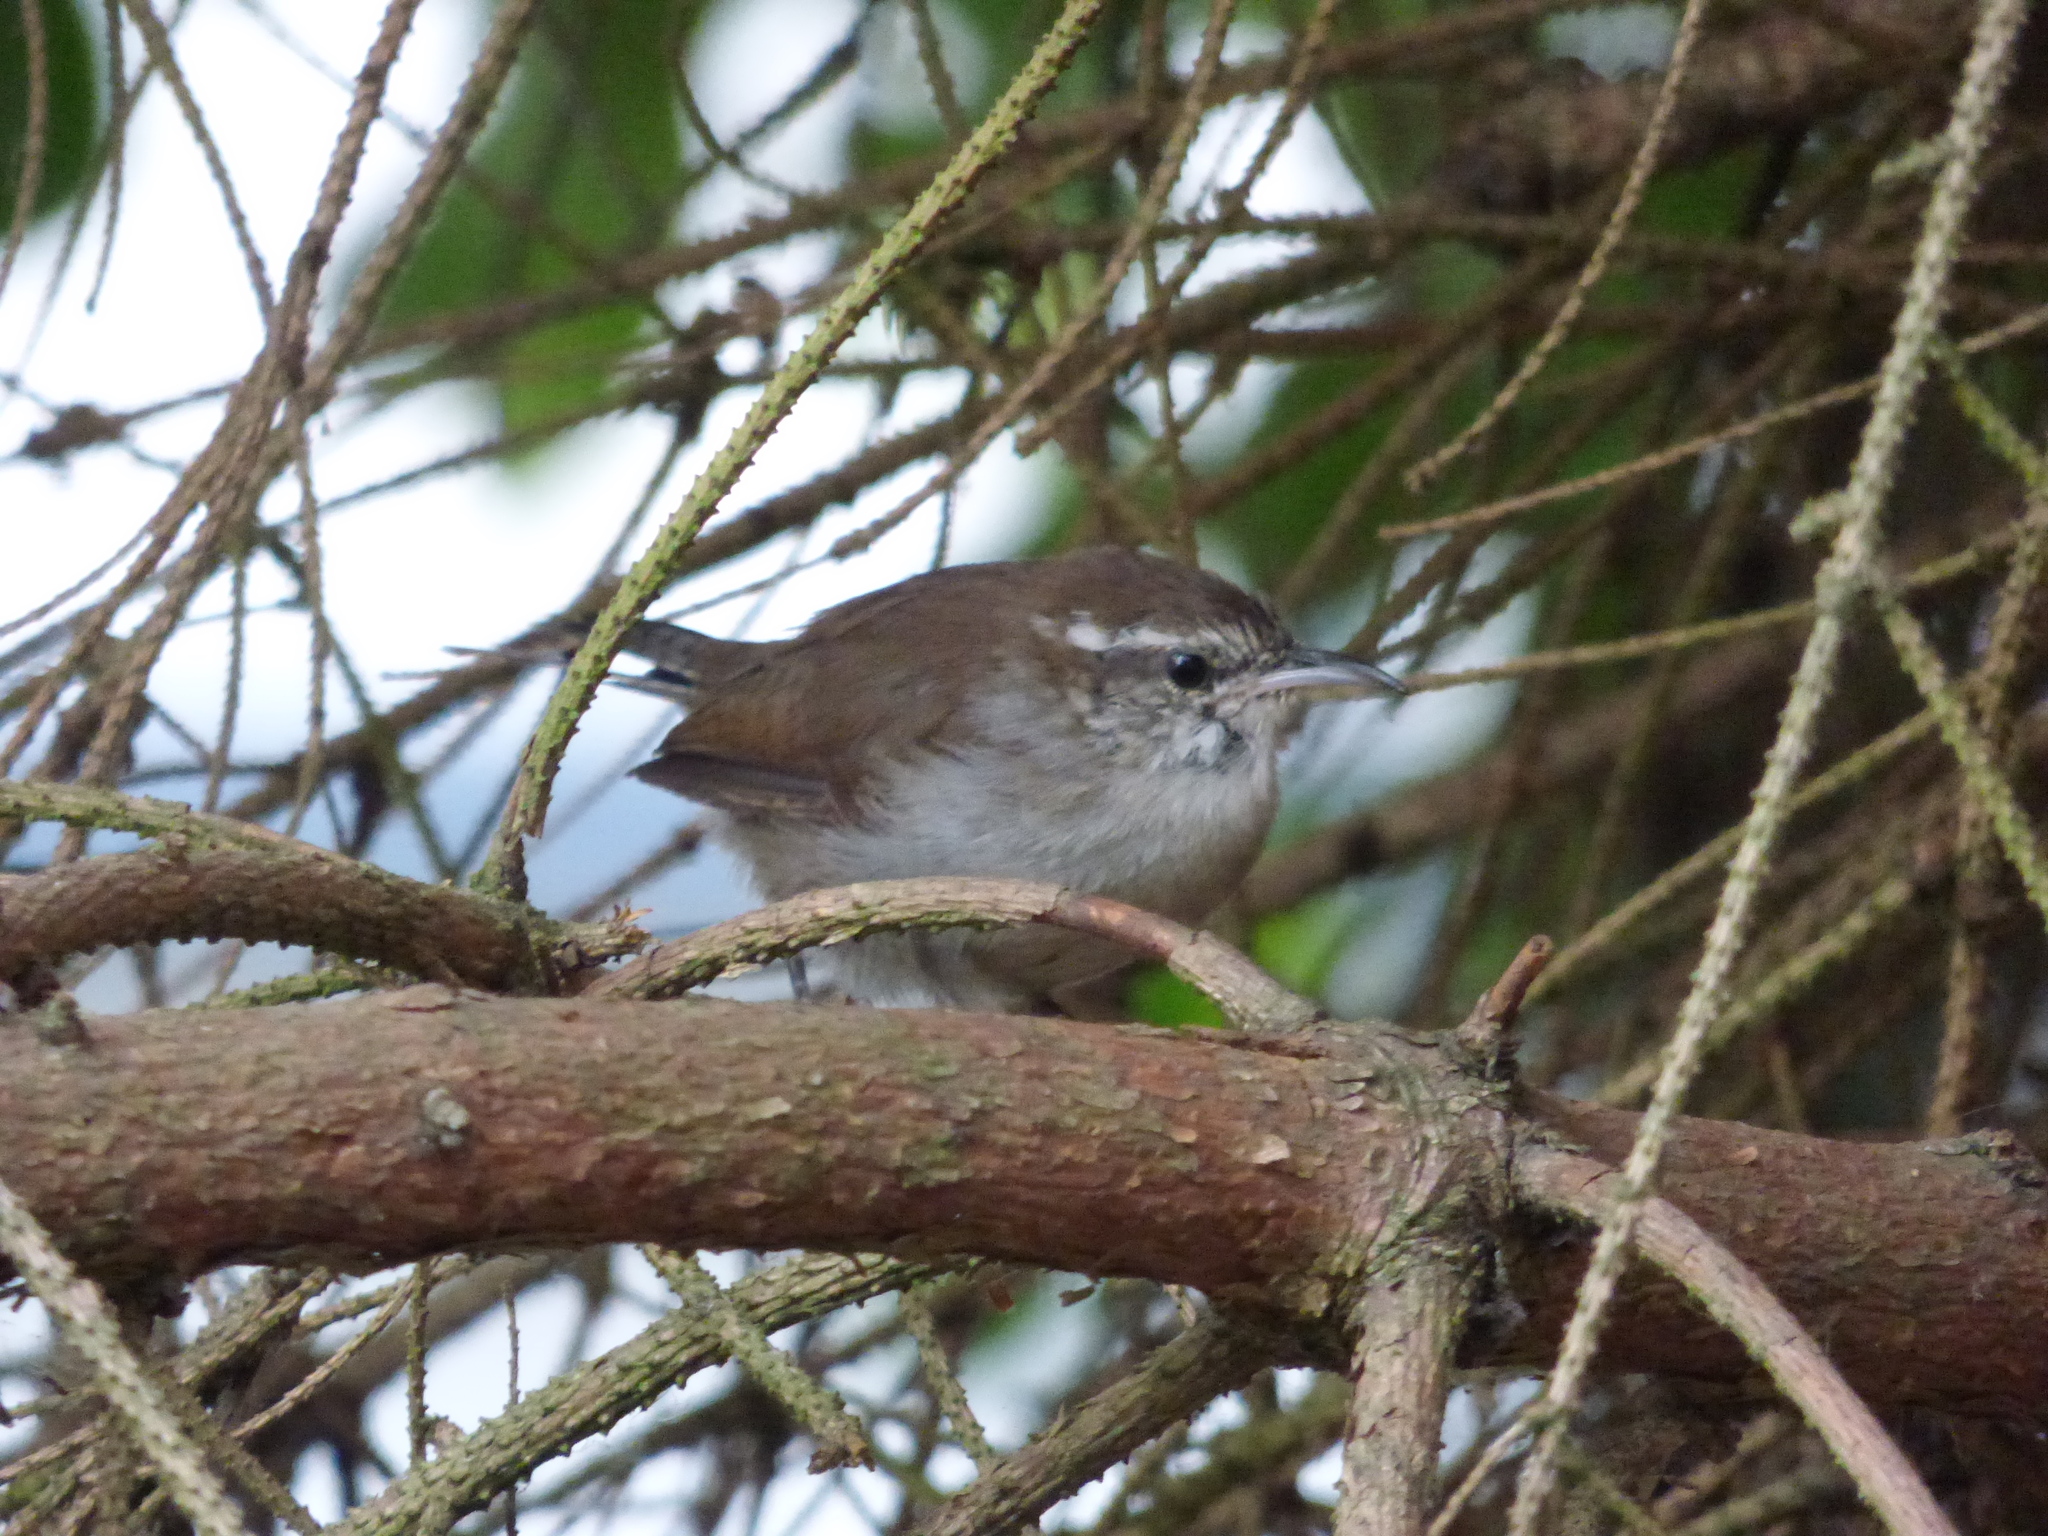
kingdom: Animalia
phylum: Chordata
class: Aves
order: Passeriformes
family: Troglodytidae
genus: Thryomanes
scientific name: Thryomanes bewickii
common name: Bewick's wren
